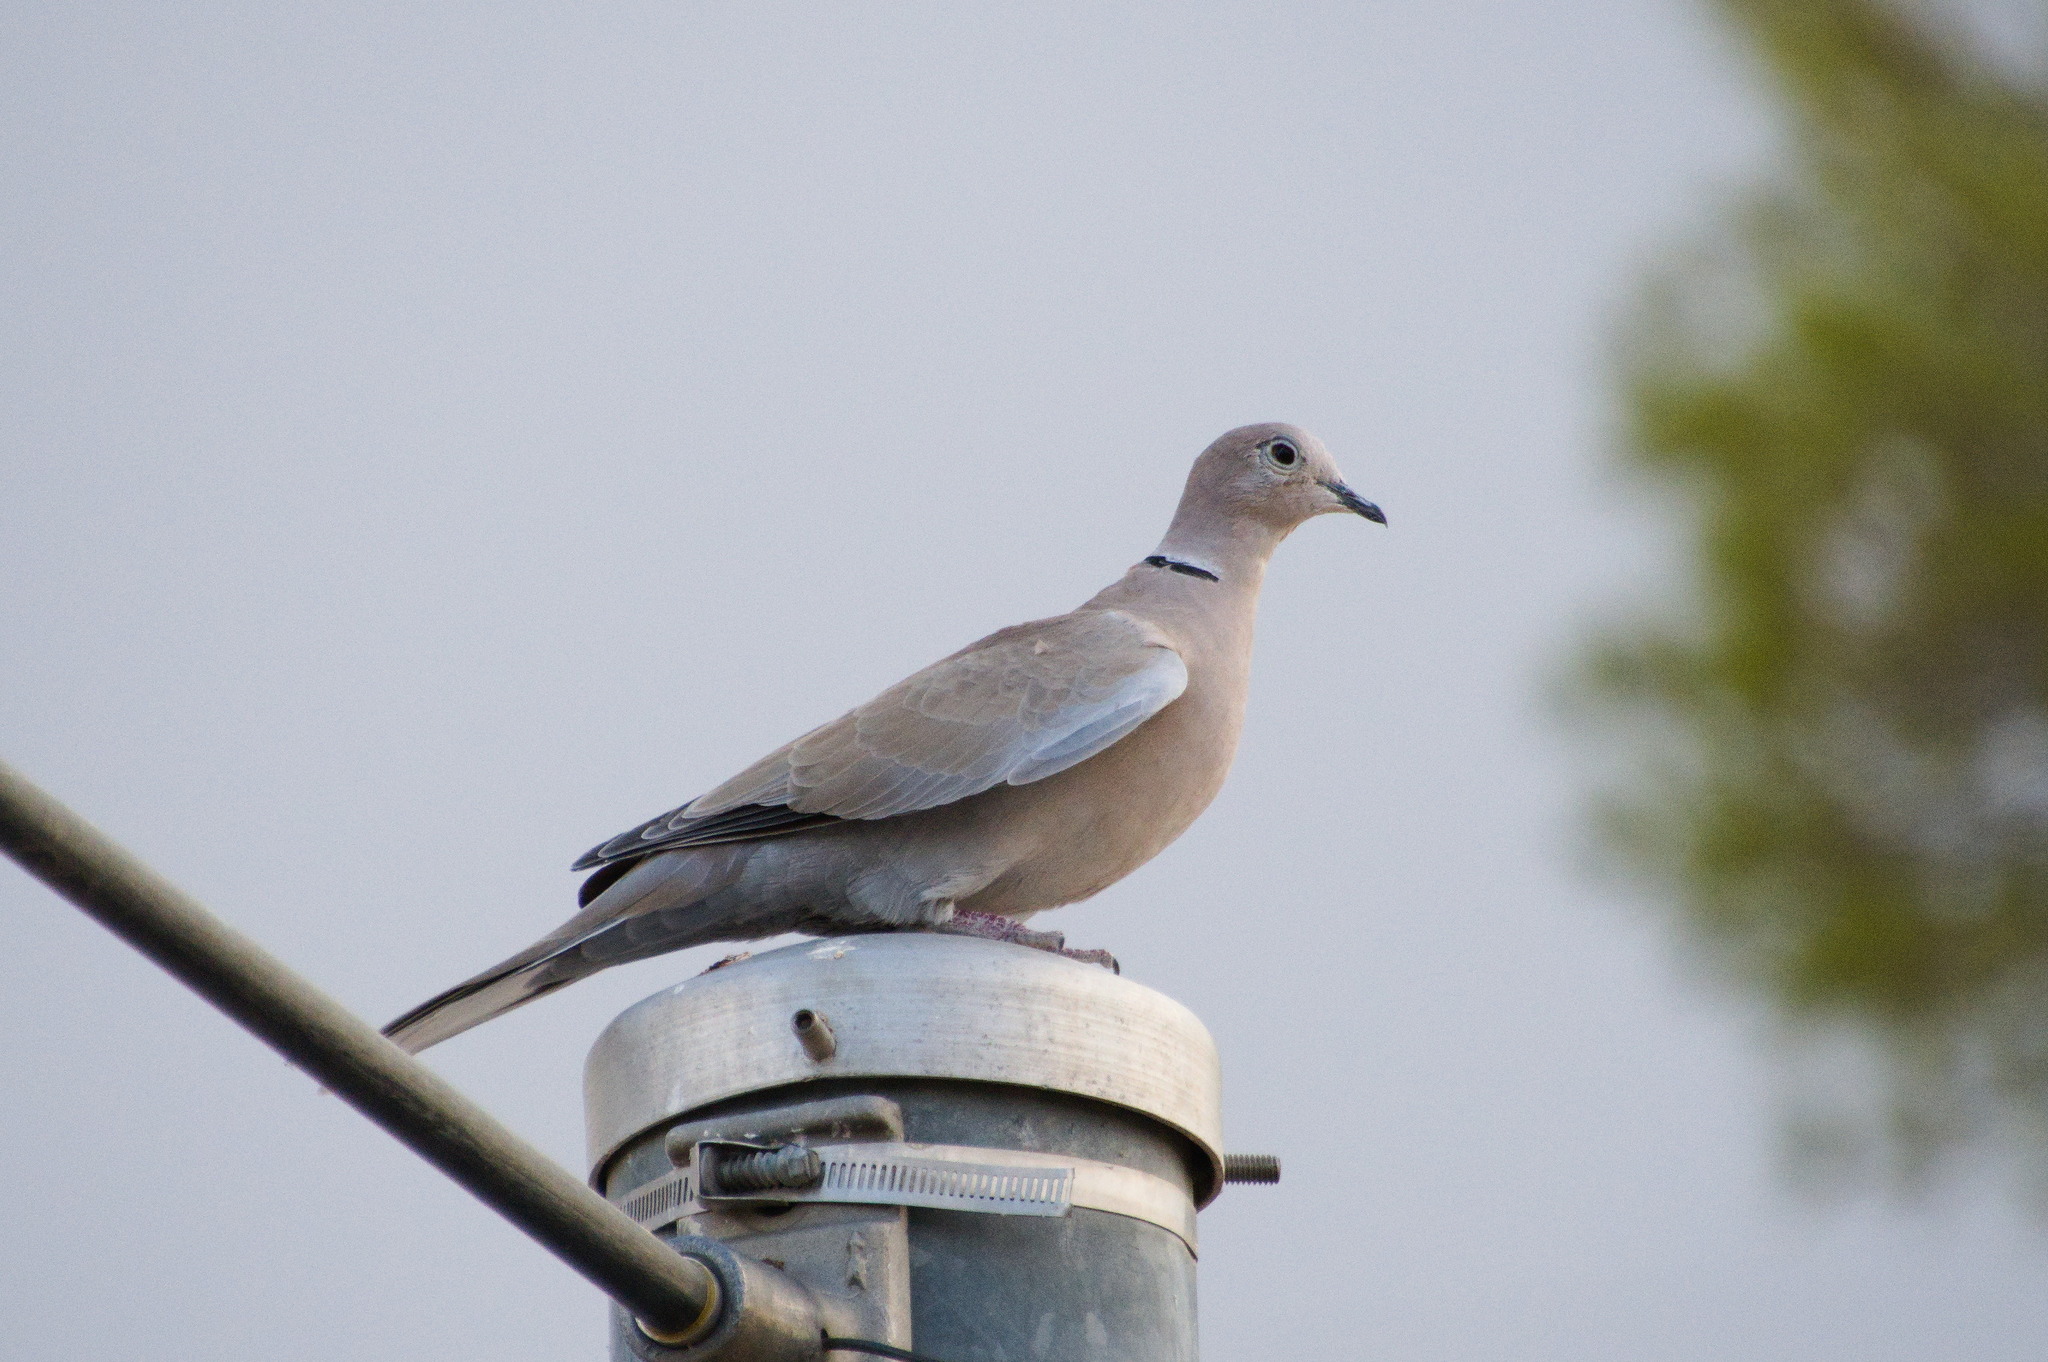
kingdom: Animalia
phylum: Chordata
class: Aves
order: Columbiformes
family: Columbidae
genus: Streptopelia
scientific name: Streptopelia decaocto
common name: Eurasian collared dove
